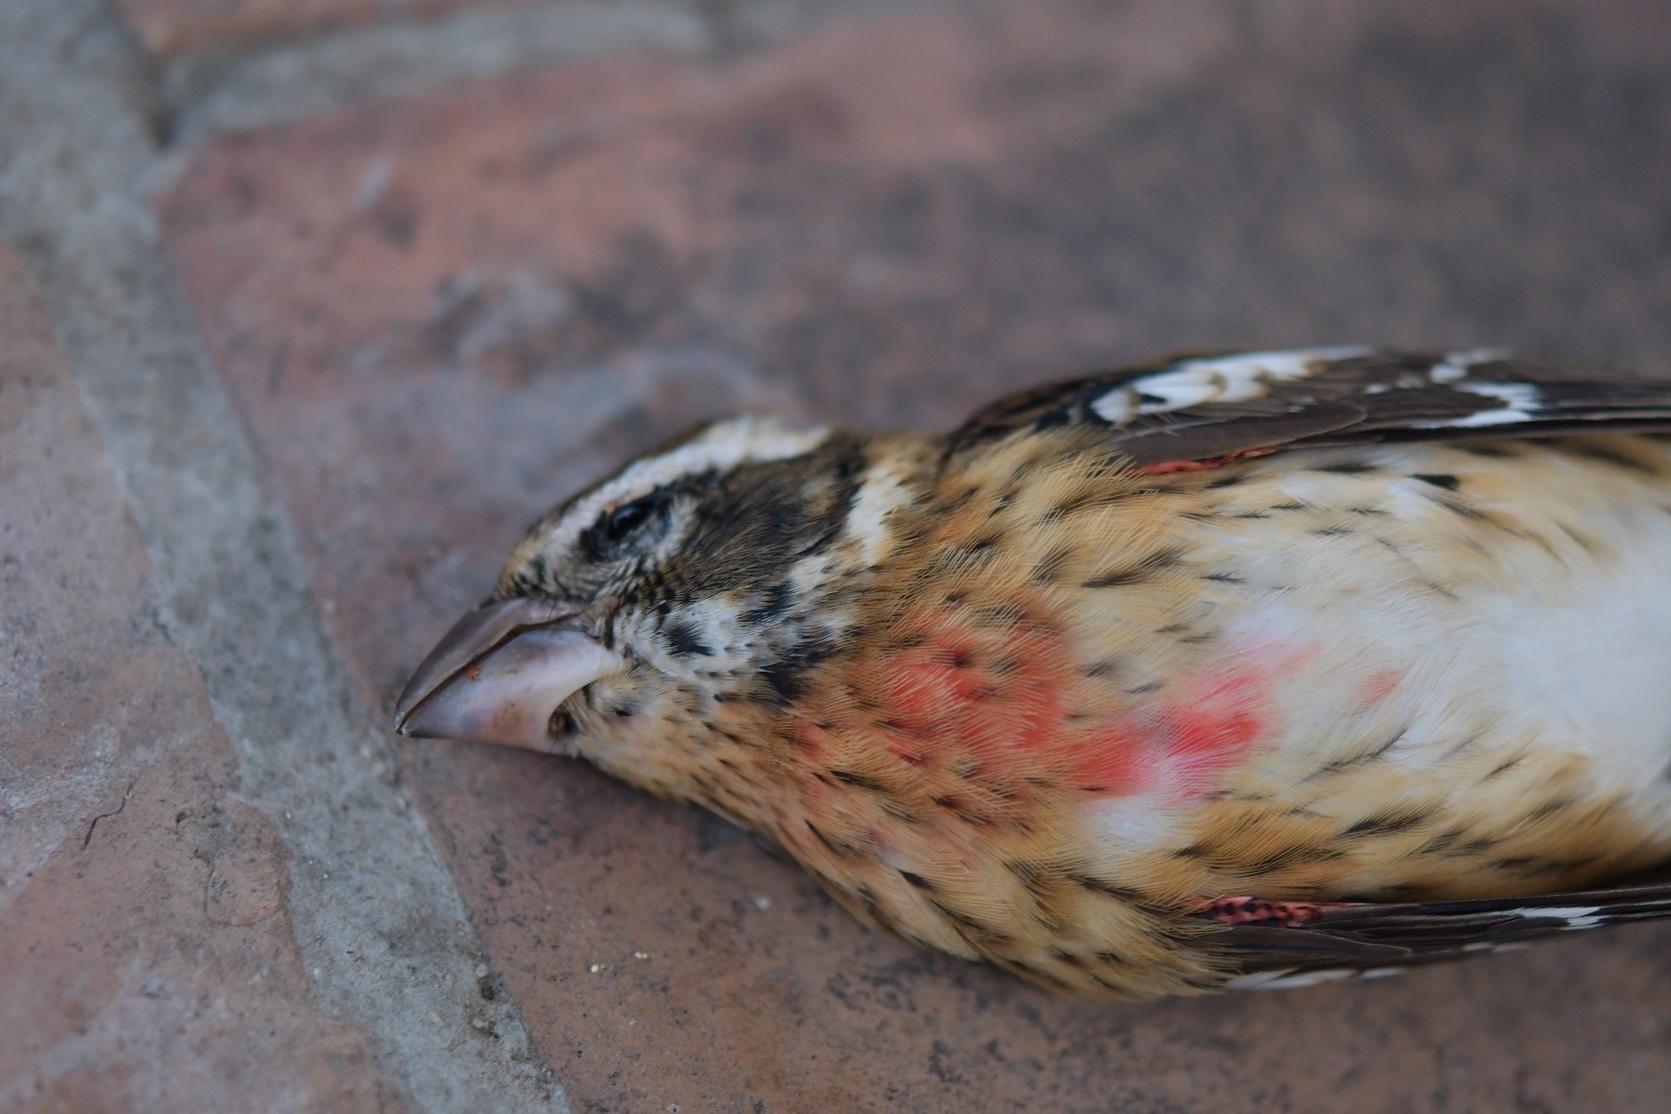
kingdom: Animalia
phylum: Chordata
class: Aves
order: Passeriformes
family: Cardinalidae
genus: Pheucticus
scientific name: Pheucticus ludovicianus
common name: Rose-breasted grosbeak
